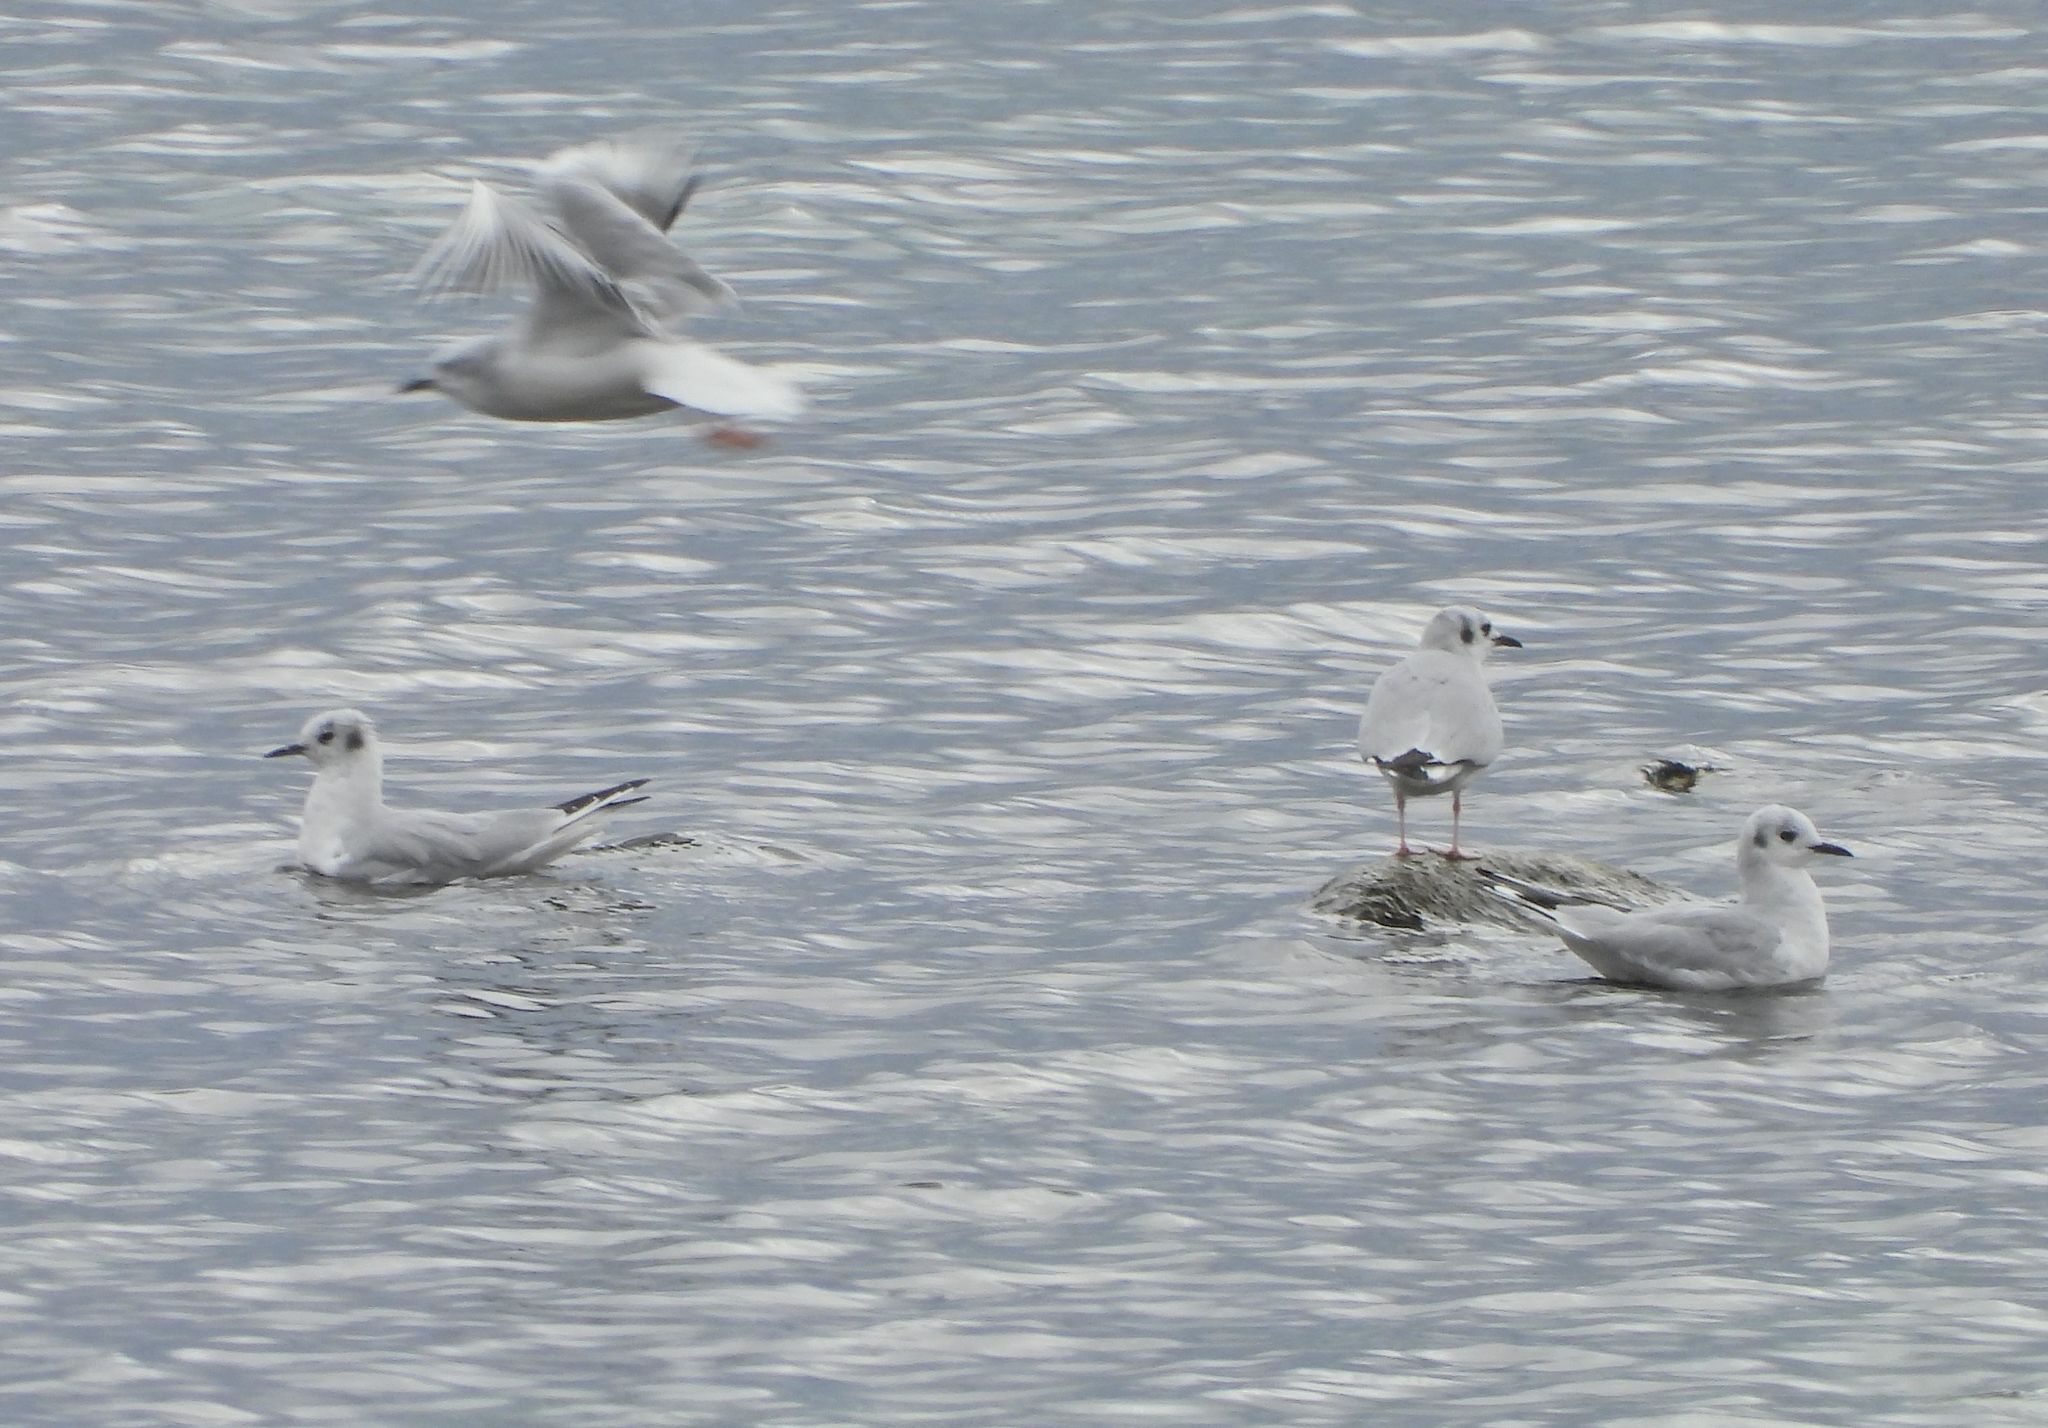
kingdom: Animalia
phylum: Chordata
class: Aves
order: Charadriiformes
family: Laridae
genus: Chroicocephalus
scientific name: Chroicocephalus philadelphia
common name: Bonaparte's gull
